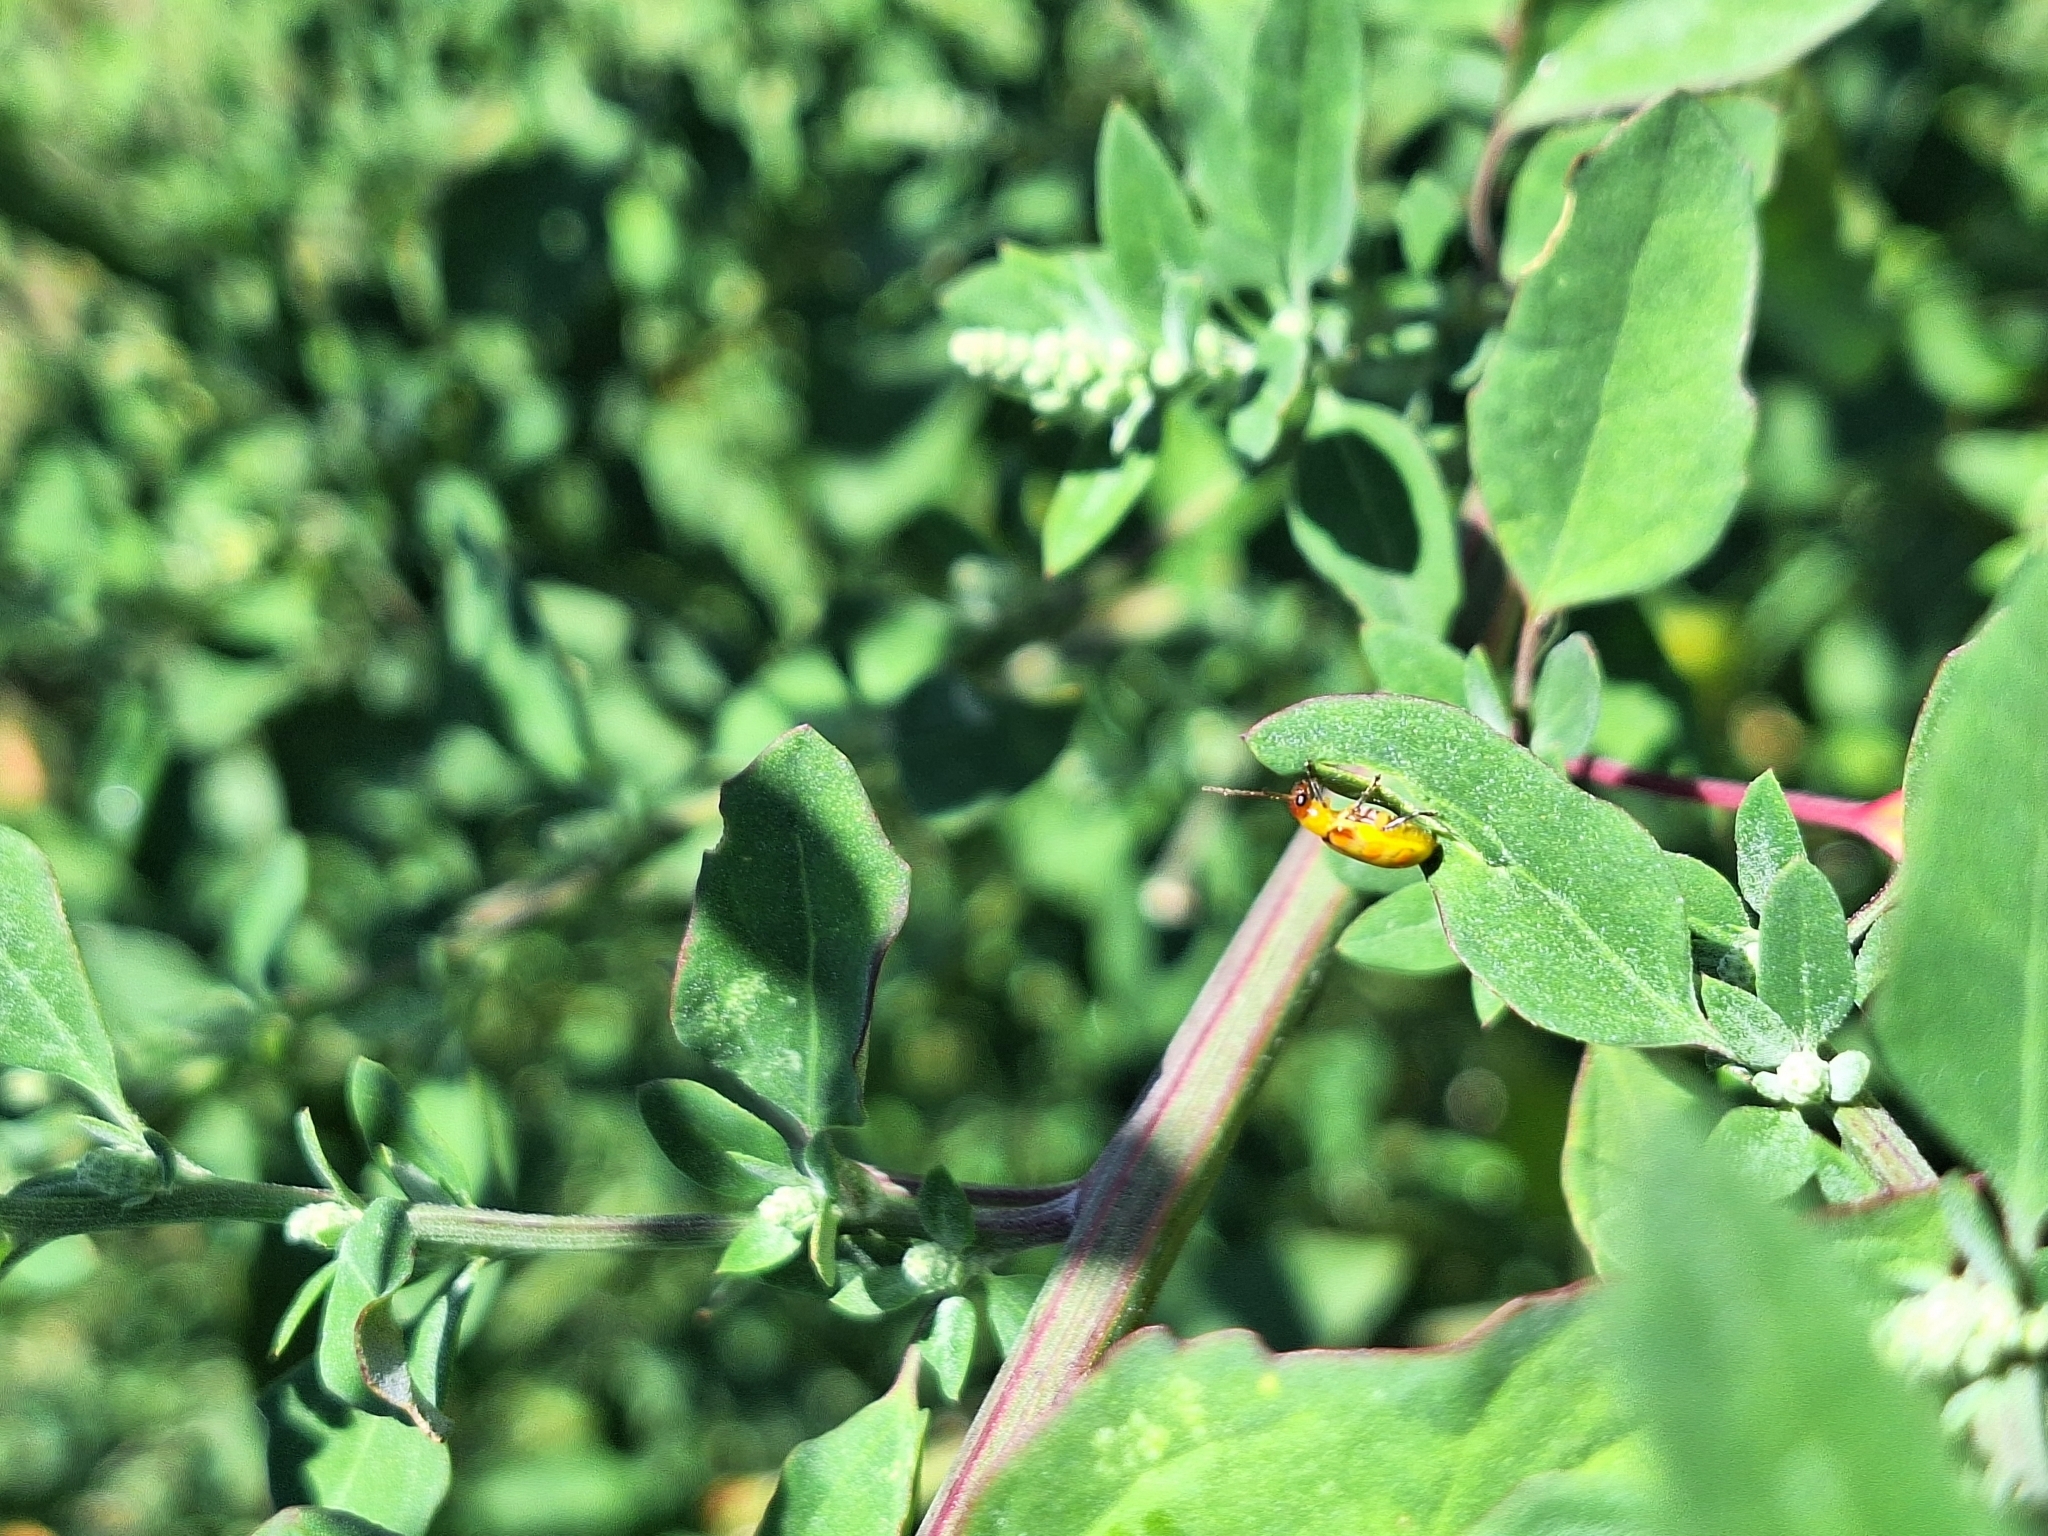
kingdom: Animalia
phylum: Arthropoda
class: Insecta
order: Coleoptera
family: Chrysomelidae
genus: Diabrotica
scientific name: Diabrotica speciosa
